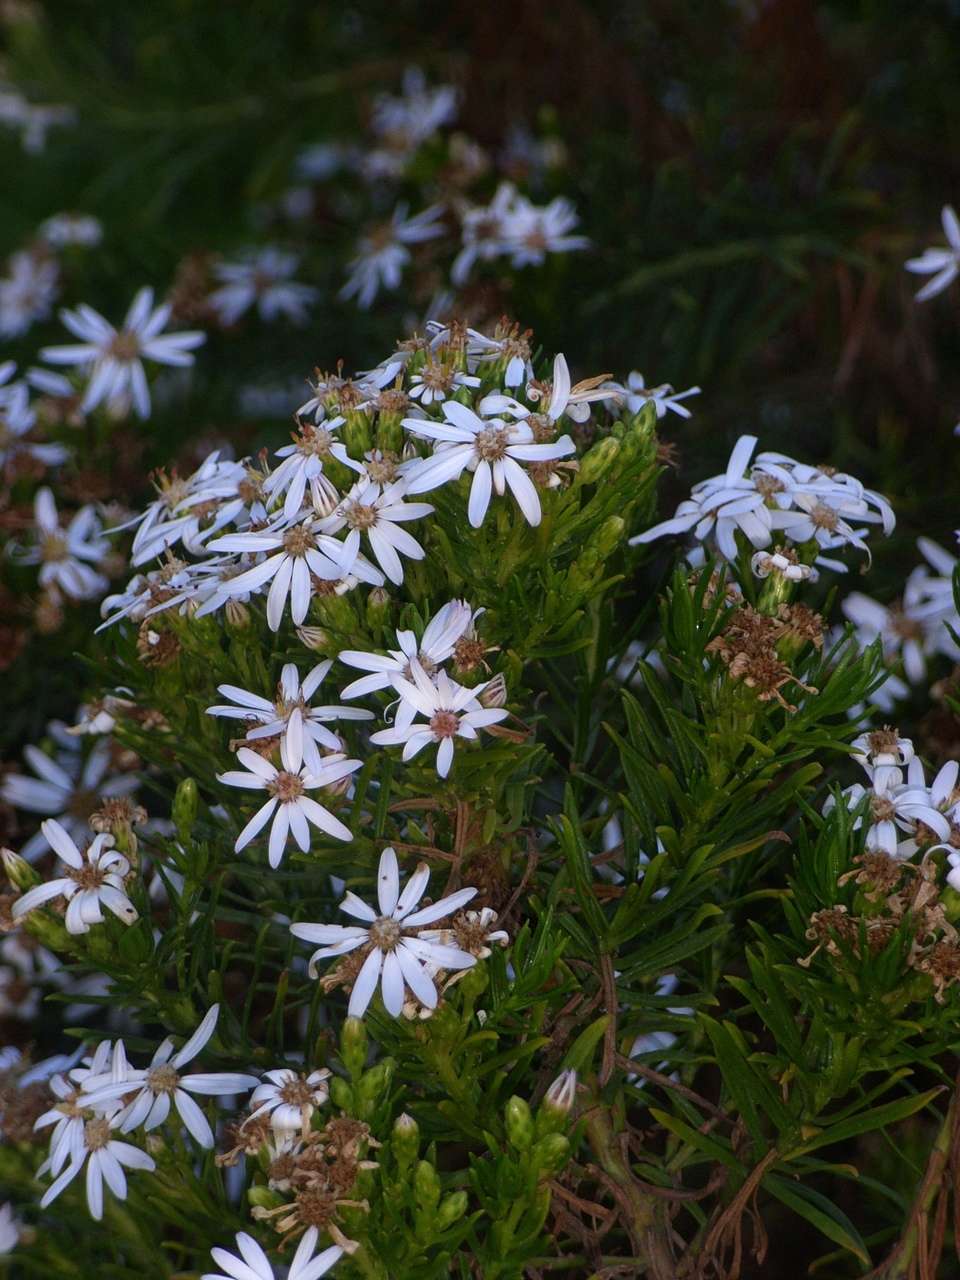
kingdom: Plantae
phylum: Tracheophyta
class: Magnoliopsida
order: Asterales
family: Asteraceae
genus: Olearia
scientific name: Olearia glutinosa
